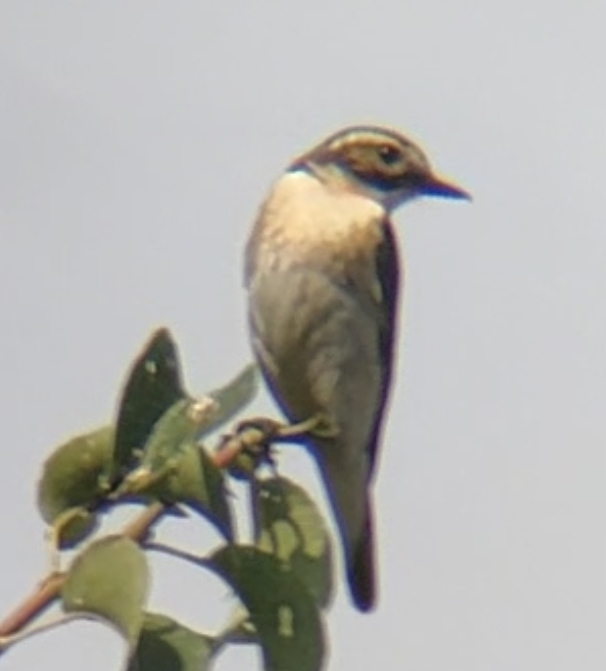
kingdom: Animalia
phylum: Chordata
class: Aves
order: Passeriformes
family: Muscicapidae
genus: Saxicola
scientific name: Saxicola rubetra
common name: Whinchat
